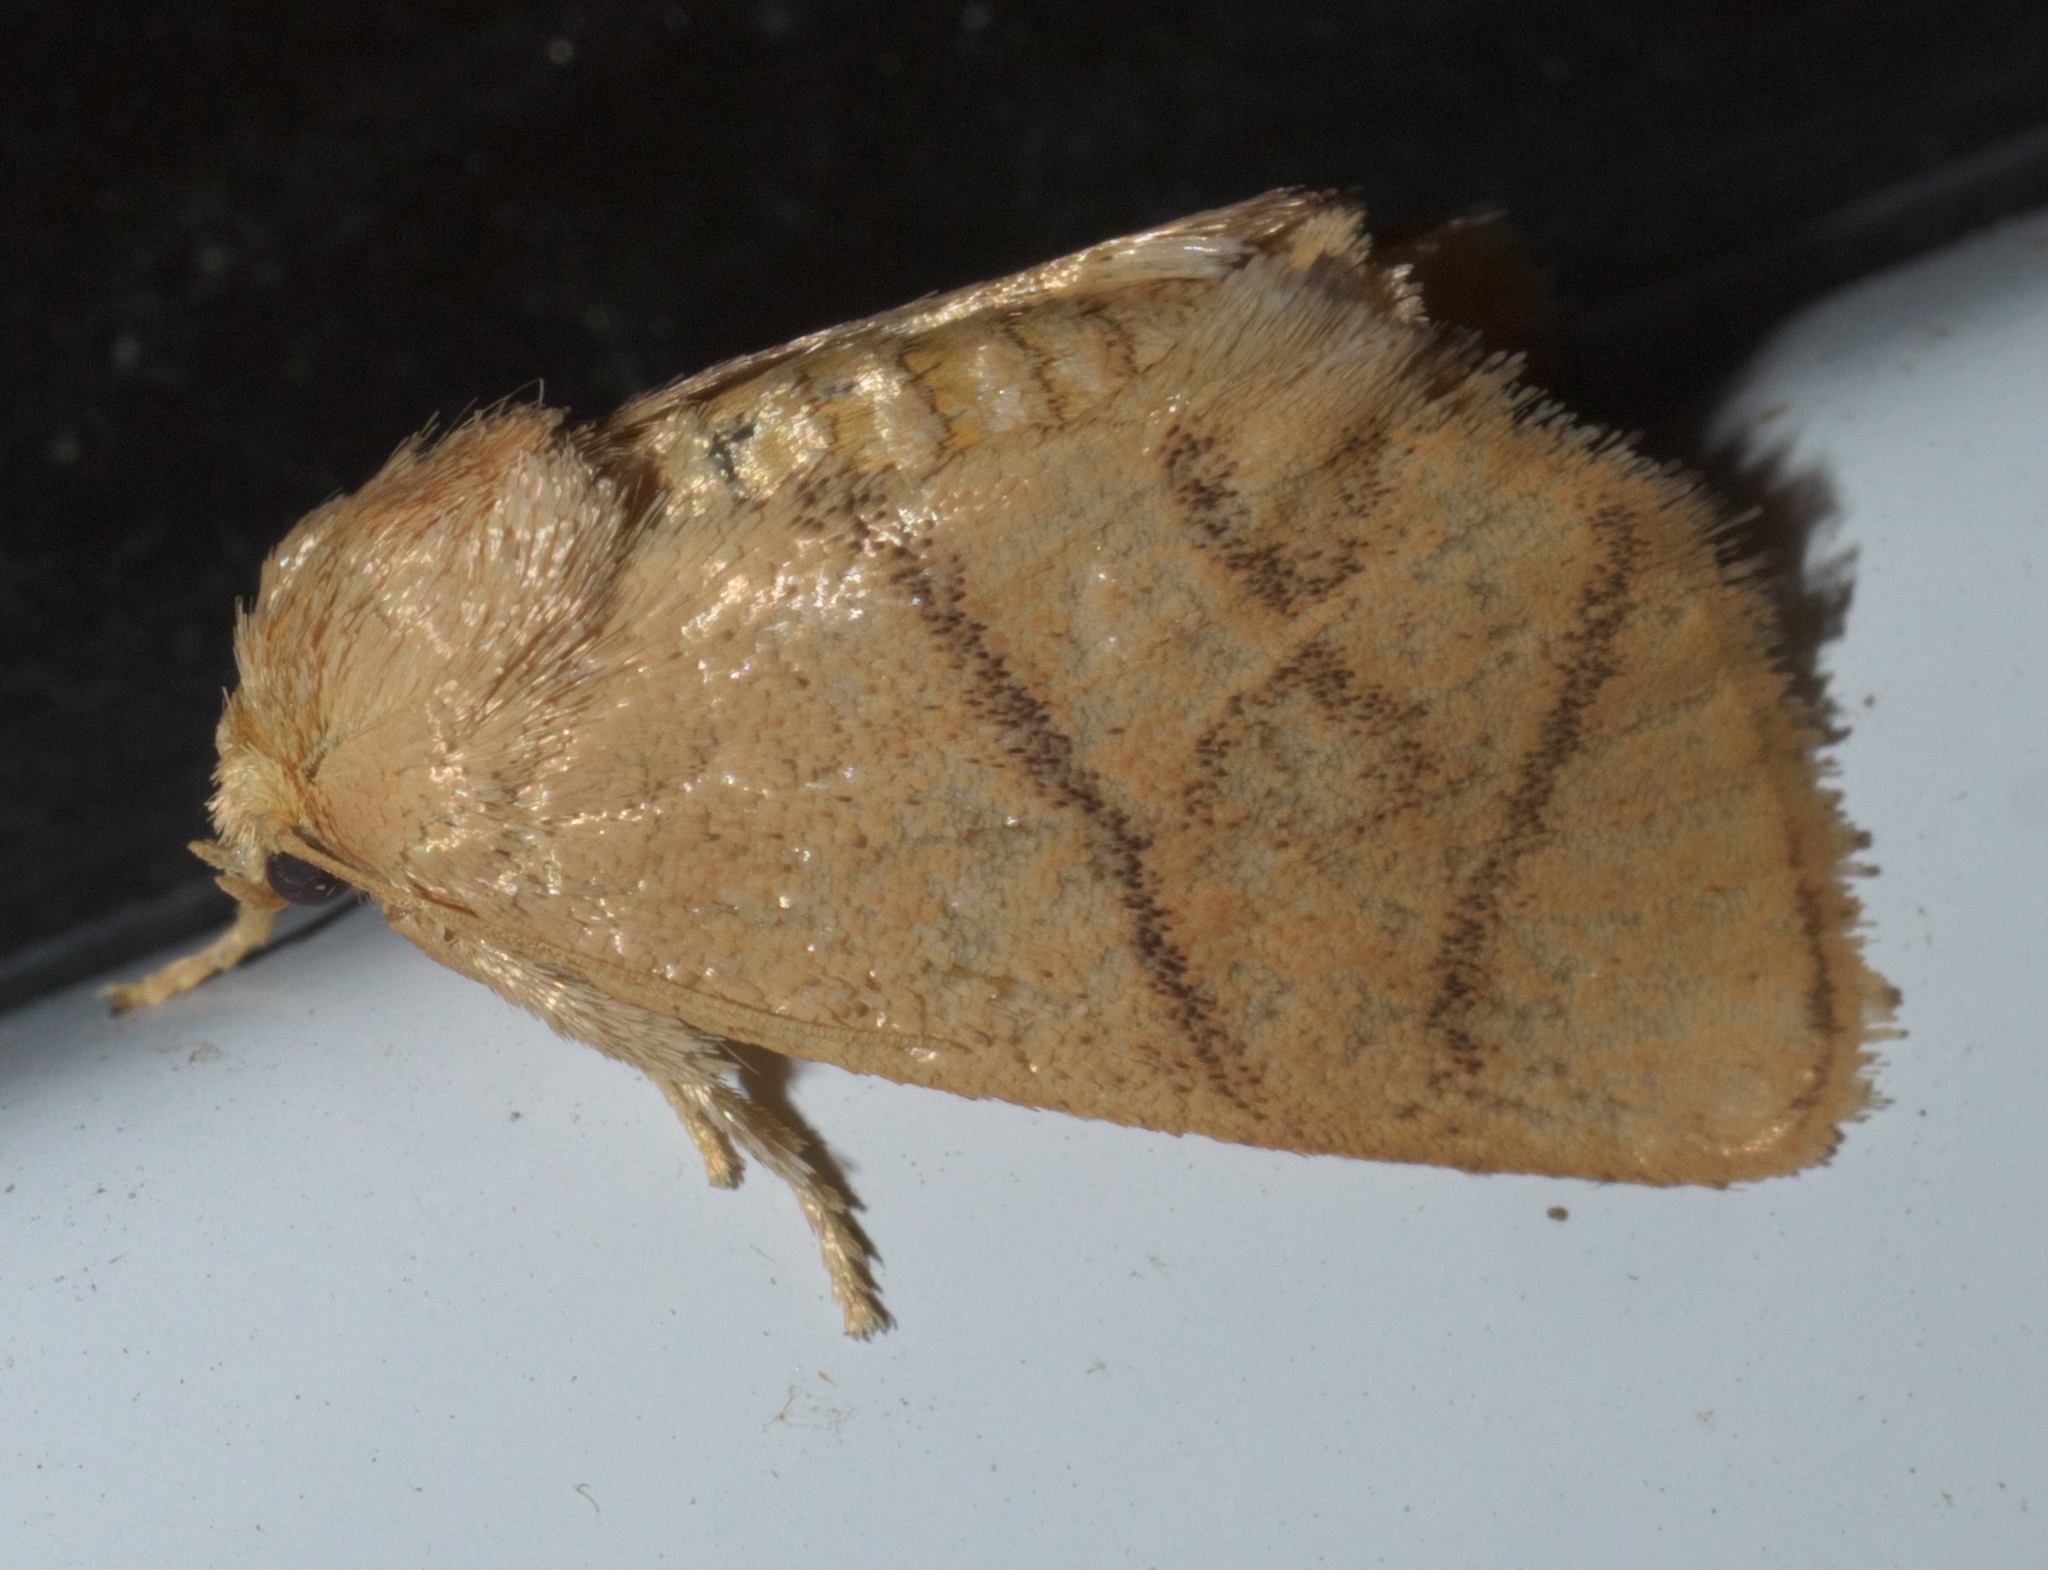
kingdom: Animalia
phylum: Arthropoda
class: Insecta
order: Lepidoptera
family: Limacodidae
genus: Apoda
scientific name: Apoda y-inversa
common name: Yellow-collared slug moth
